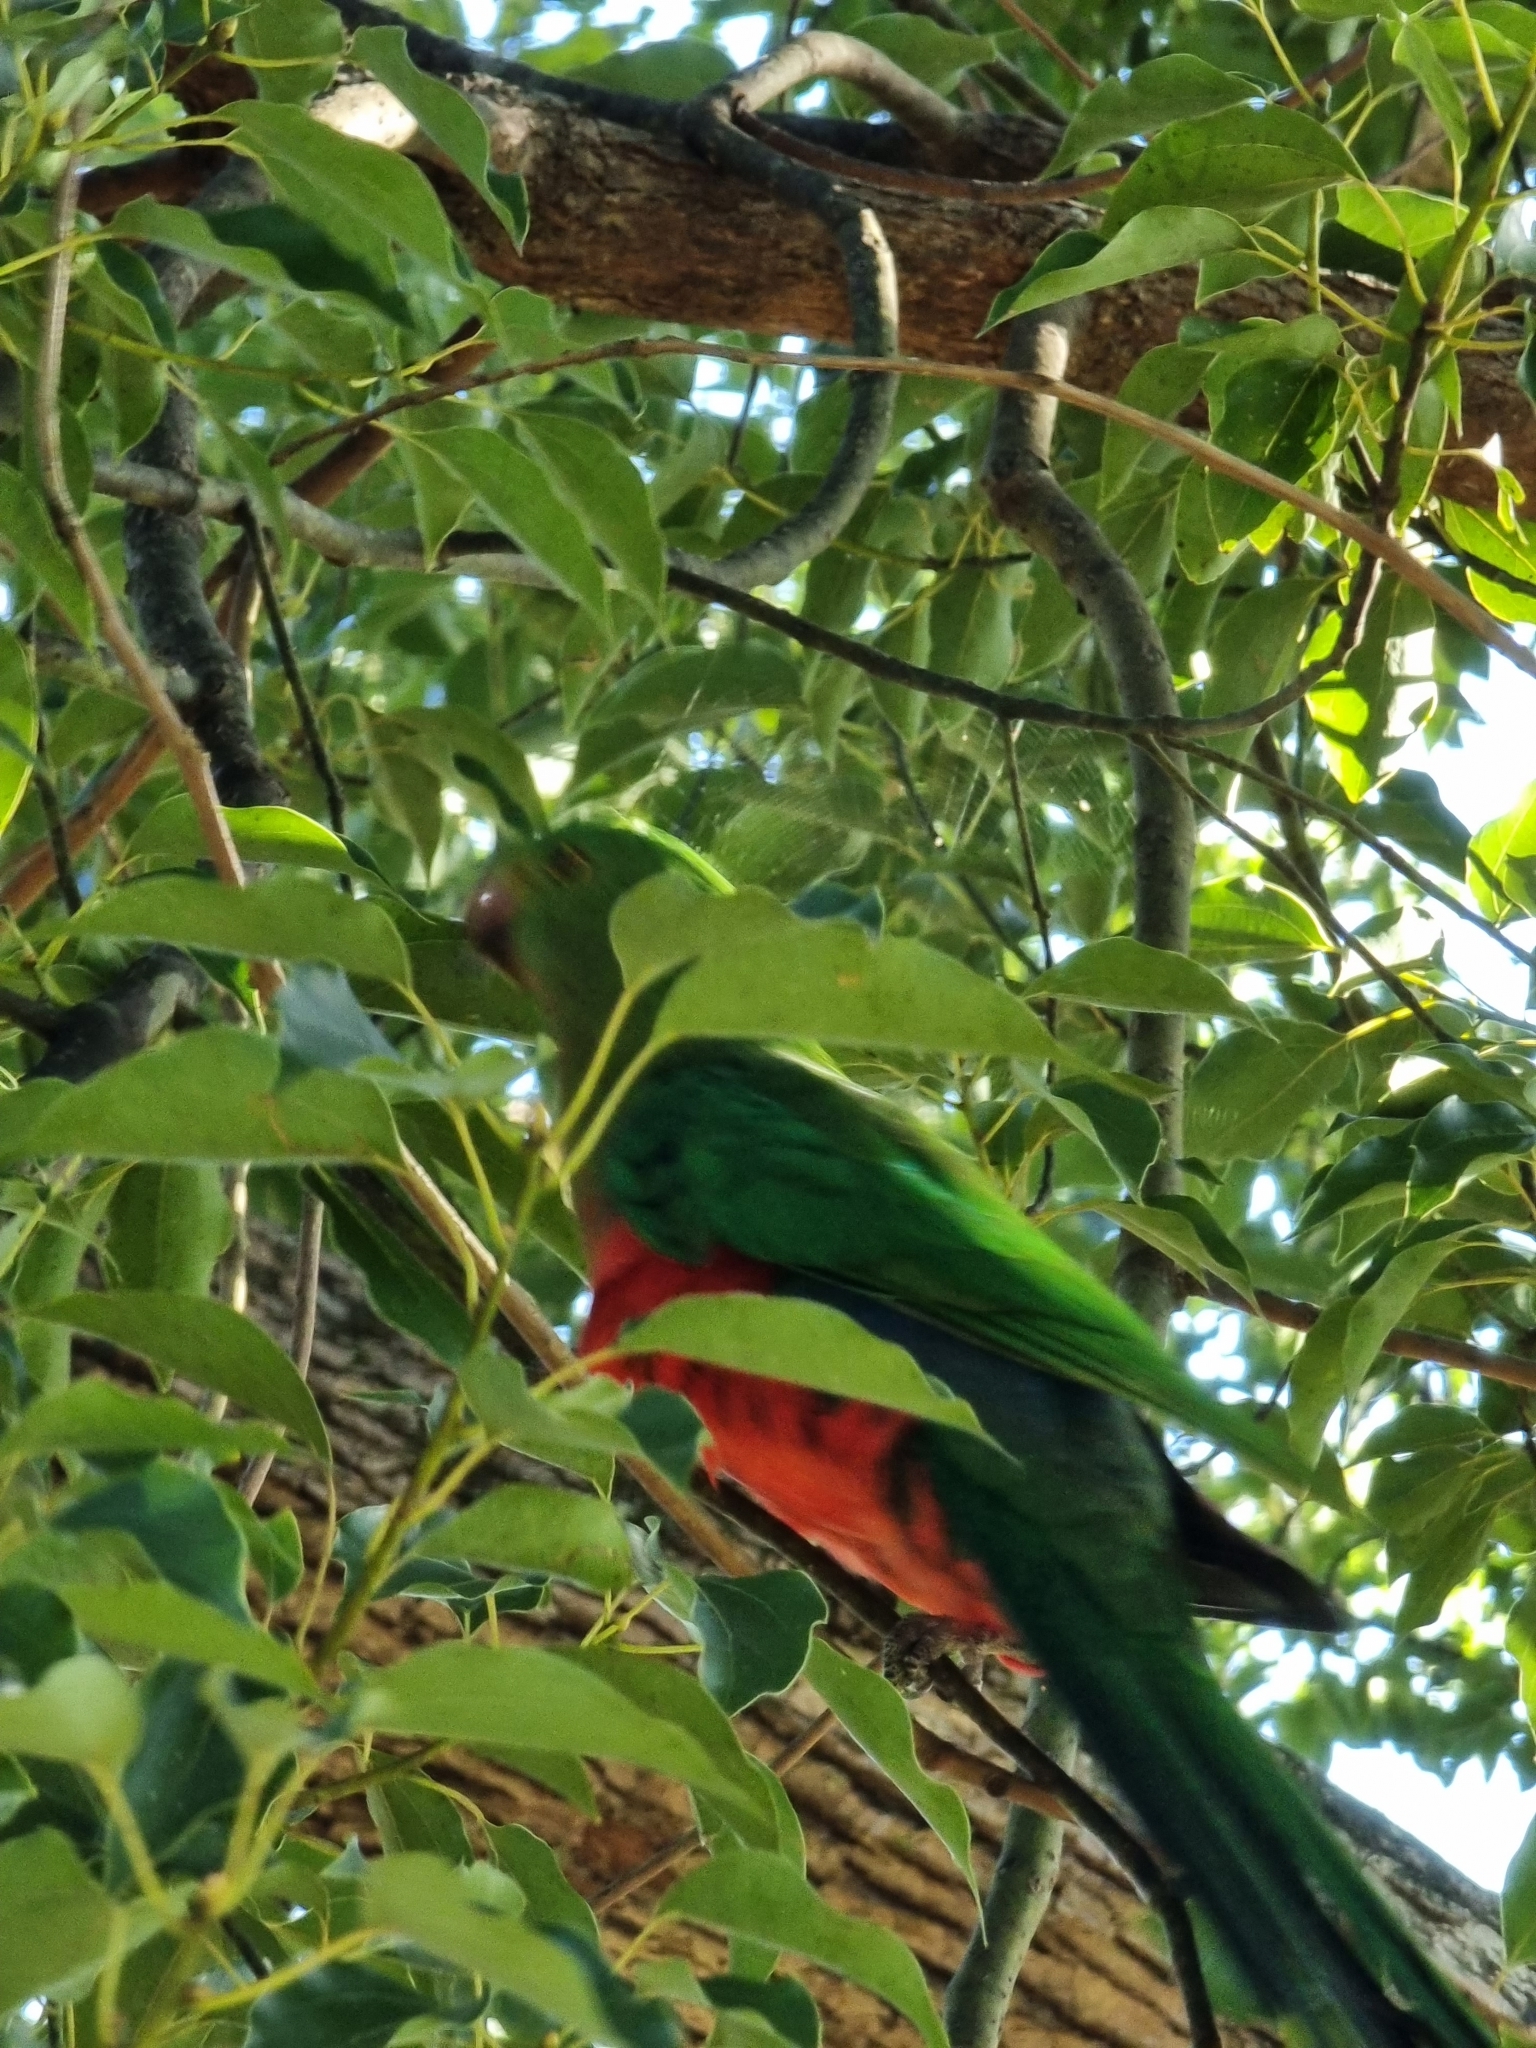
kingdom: Animalia
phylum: Chordata
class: Aves
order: Psittaciformes
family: Psittacidae
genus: Alisterus
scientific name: Alisterus scapularis
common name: Australian king parrot
